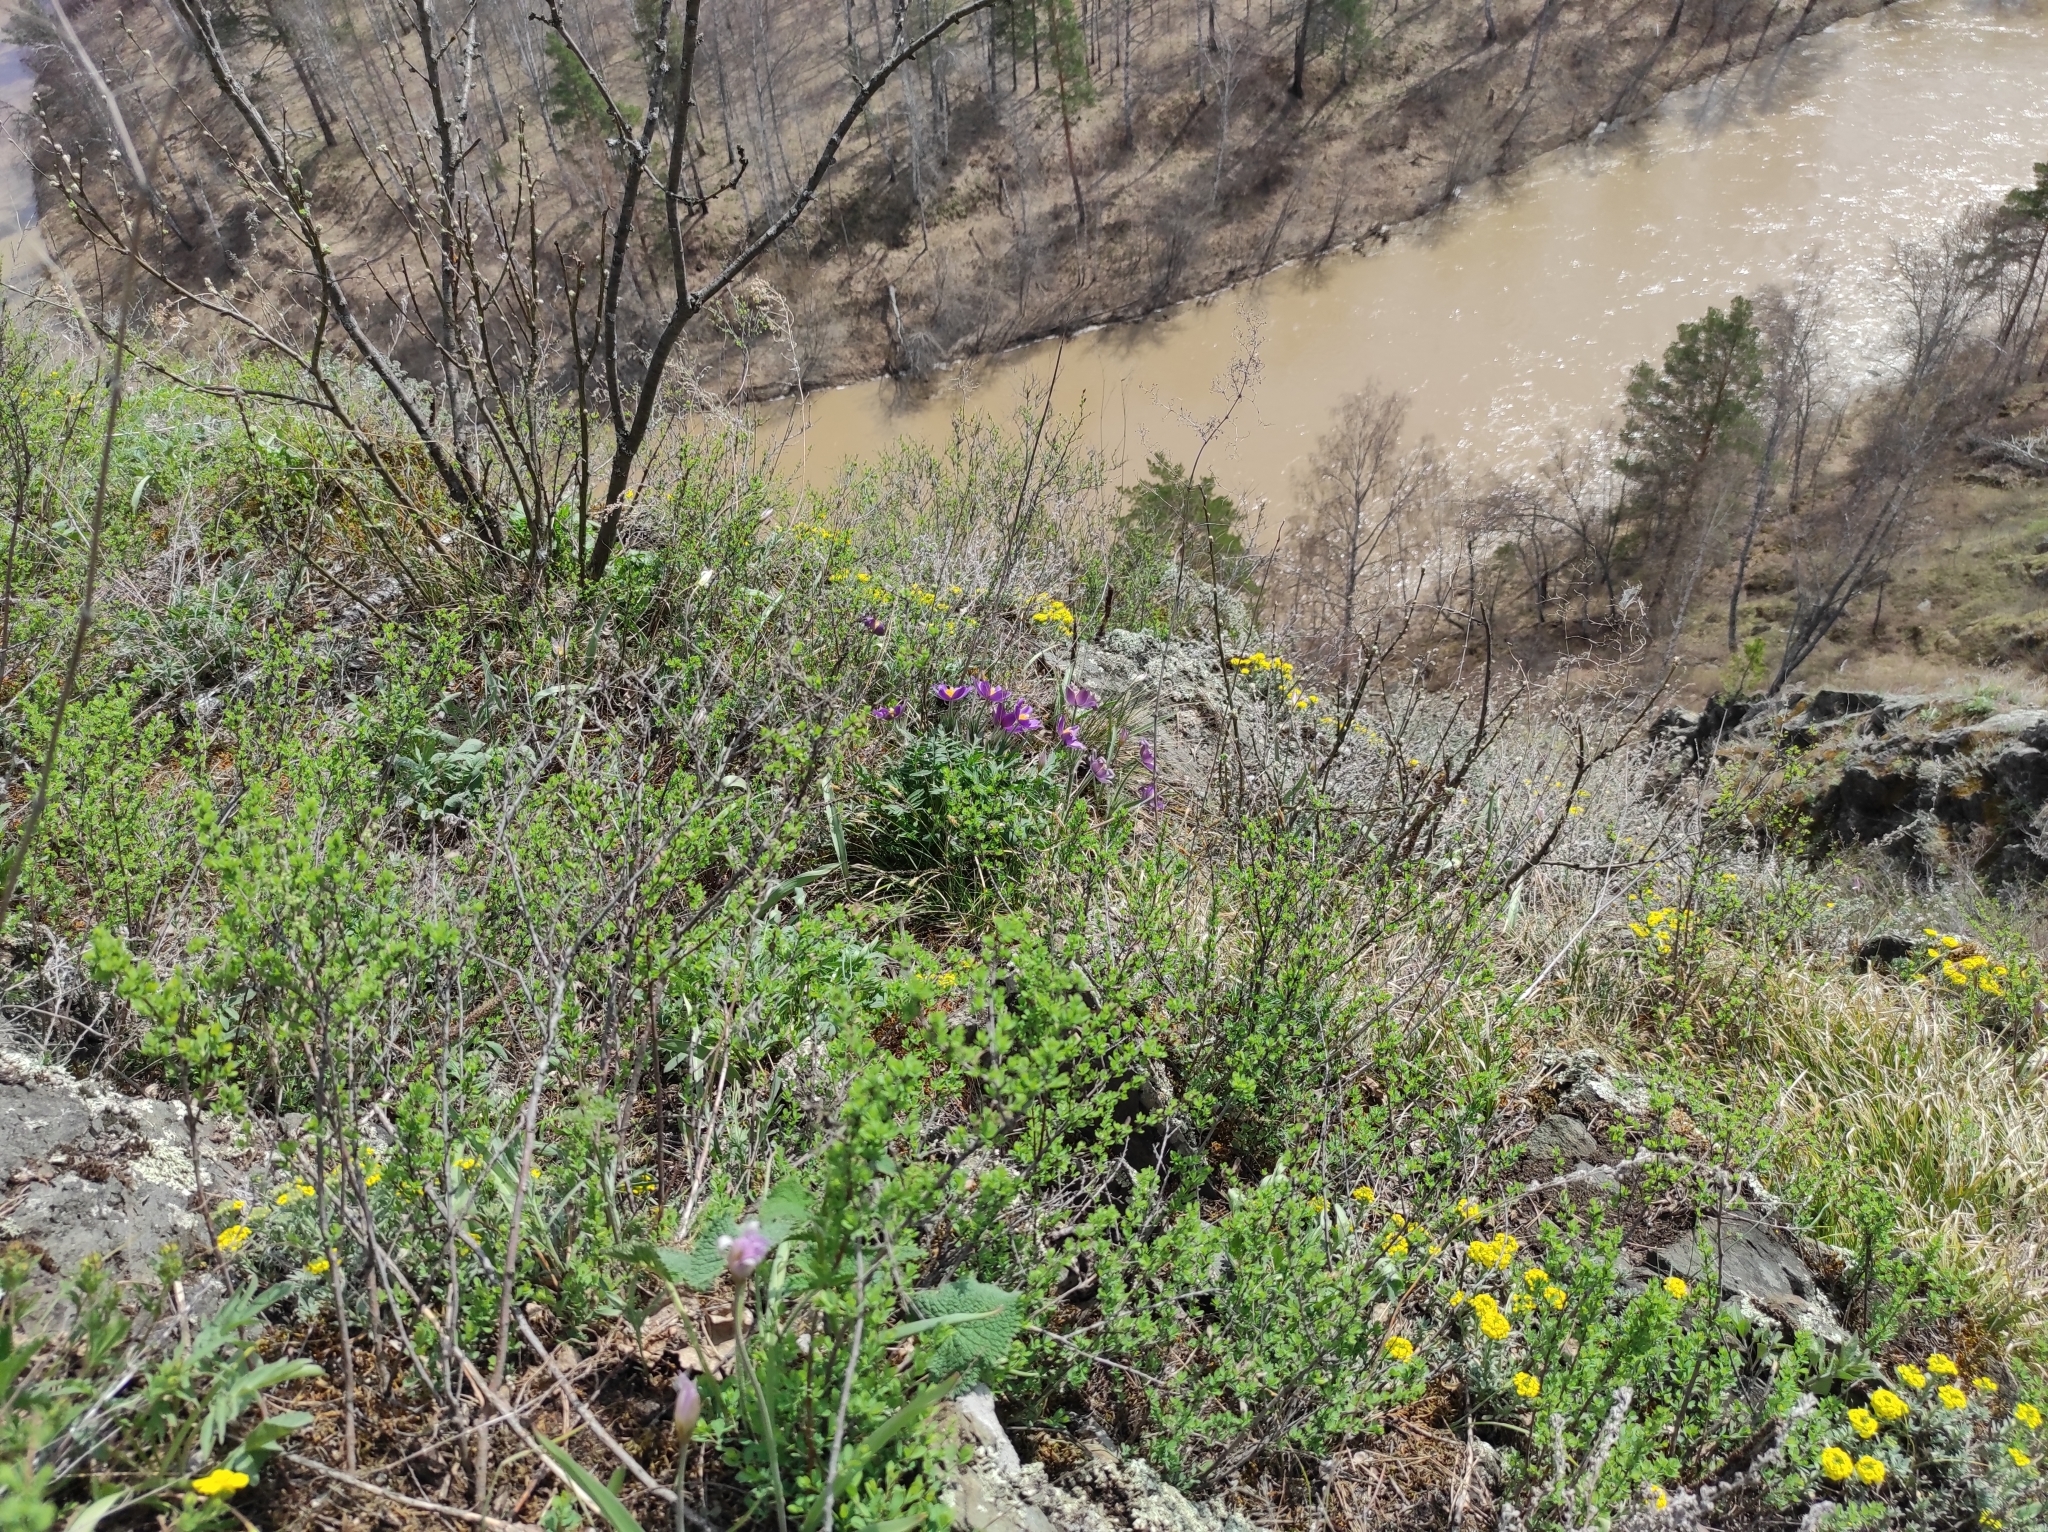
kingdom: Plantae
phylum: Tracheophyta
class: Magnoliopsida
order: Brassicales
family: Brassicaceae
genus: Alyssum
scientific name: Alyssum lenense
